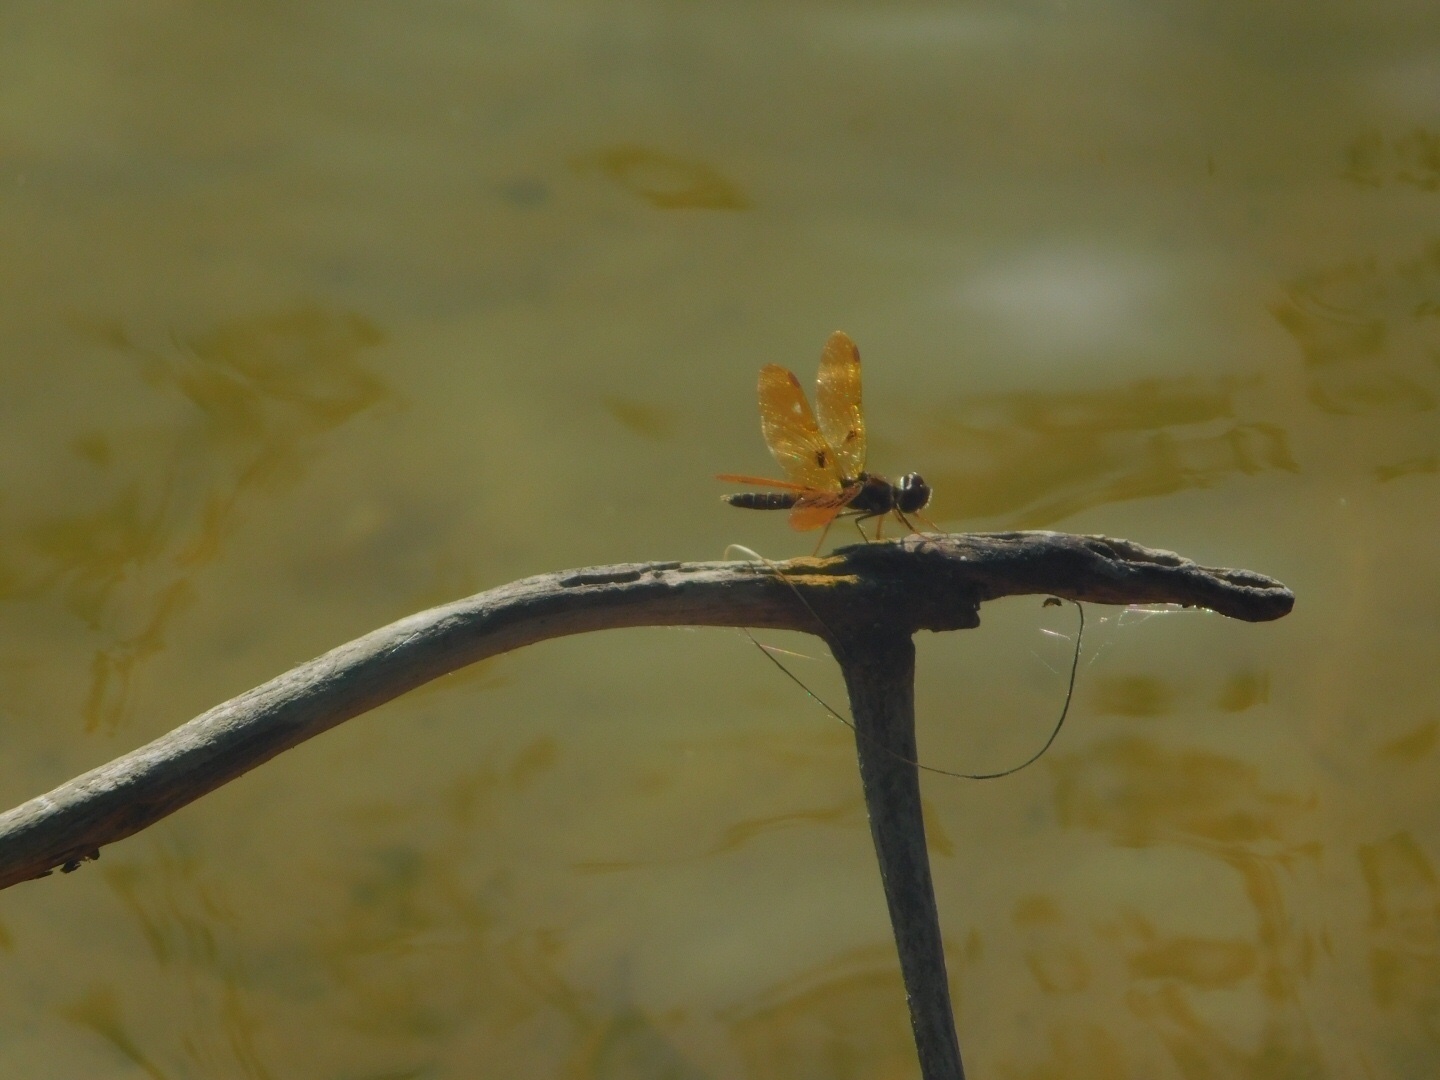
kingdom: Animalia
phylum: Arthropoda
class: Insecta
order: Odonata
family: Libellulidae
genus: Perithemis
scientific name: Perithemis tenera
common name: Eastern amberwing
